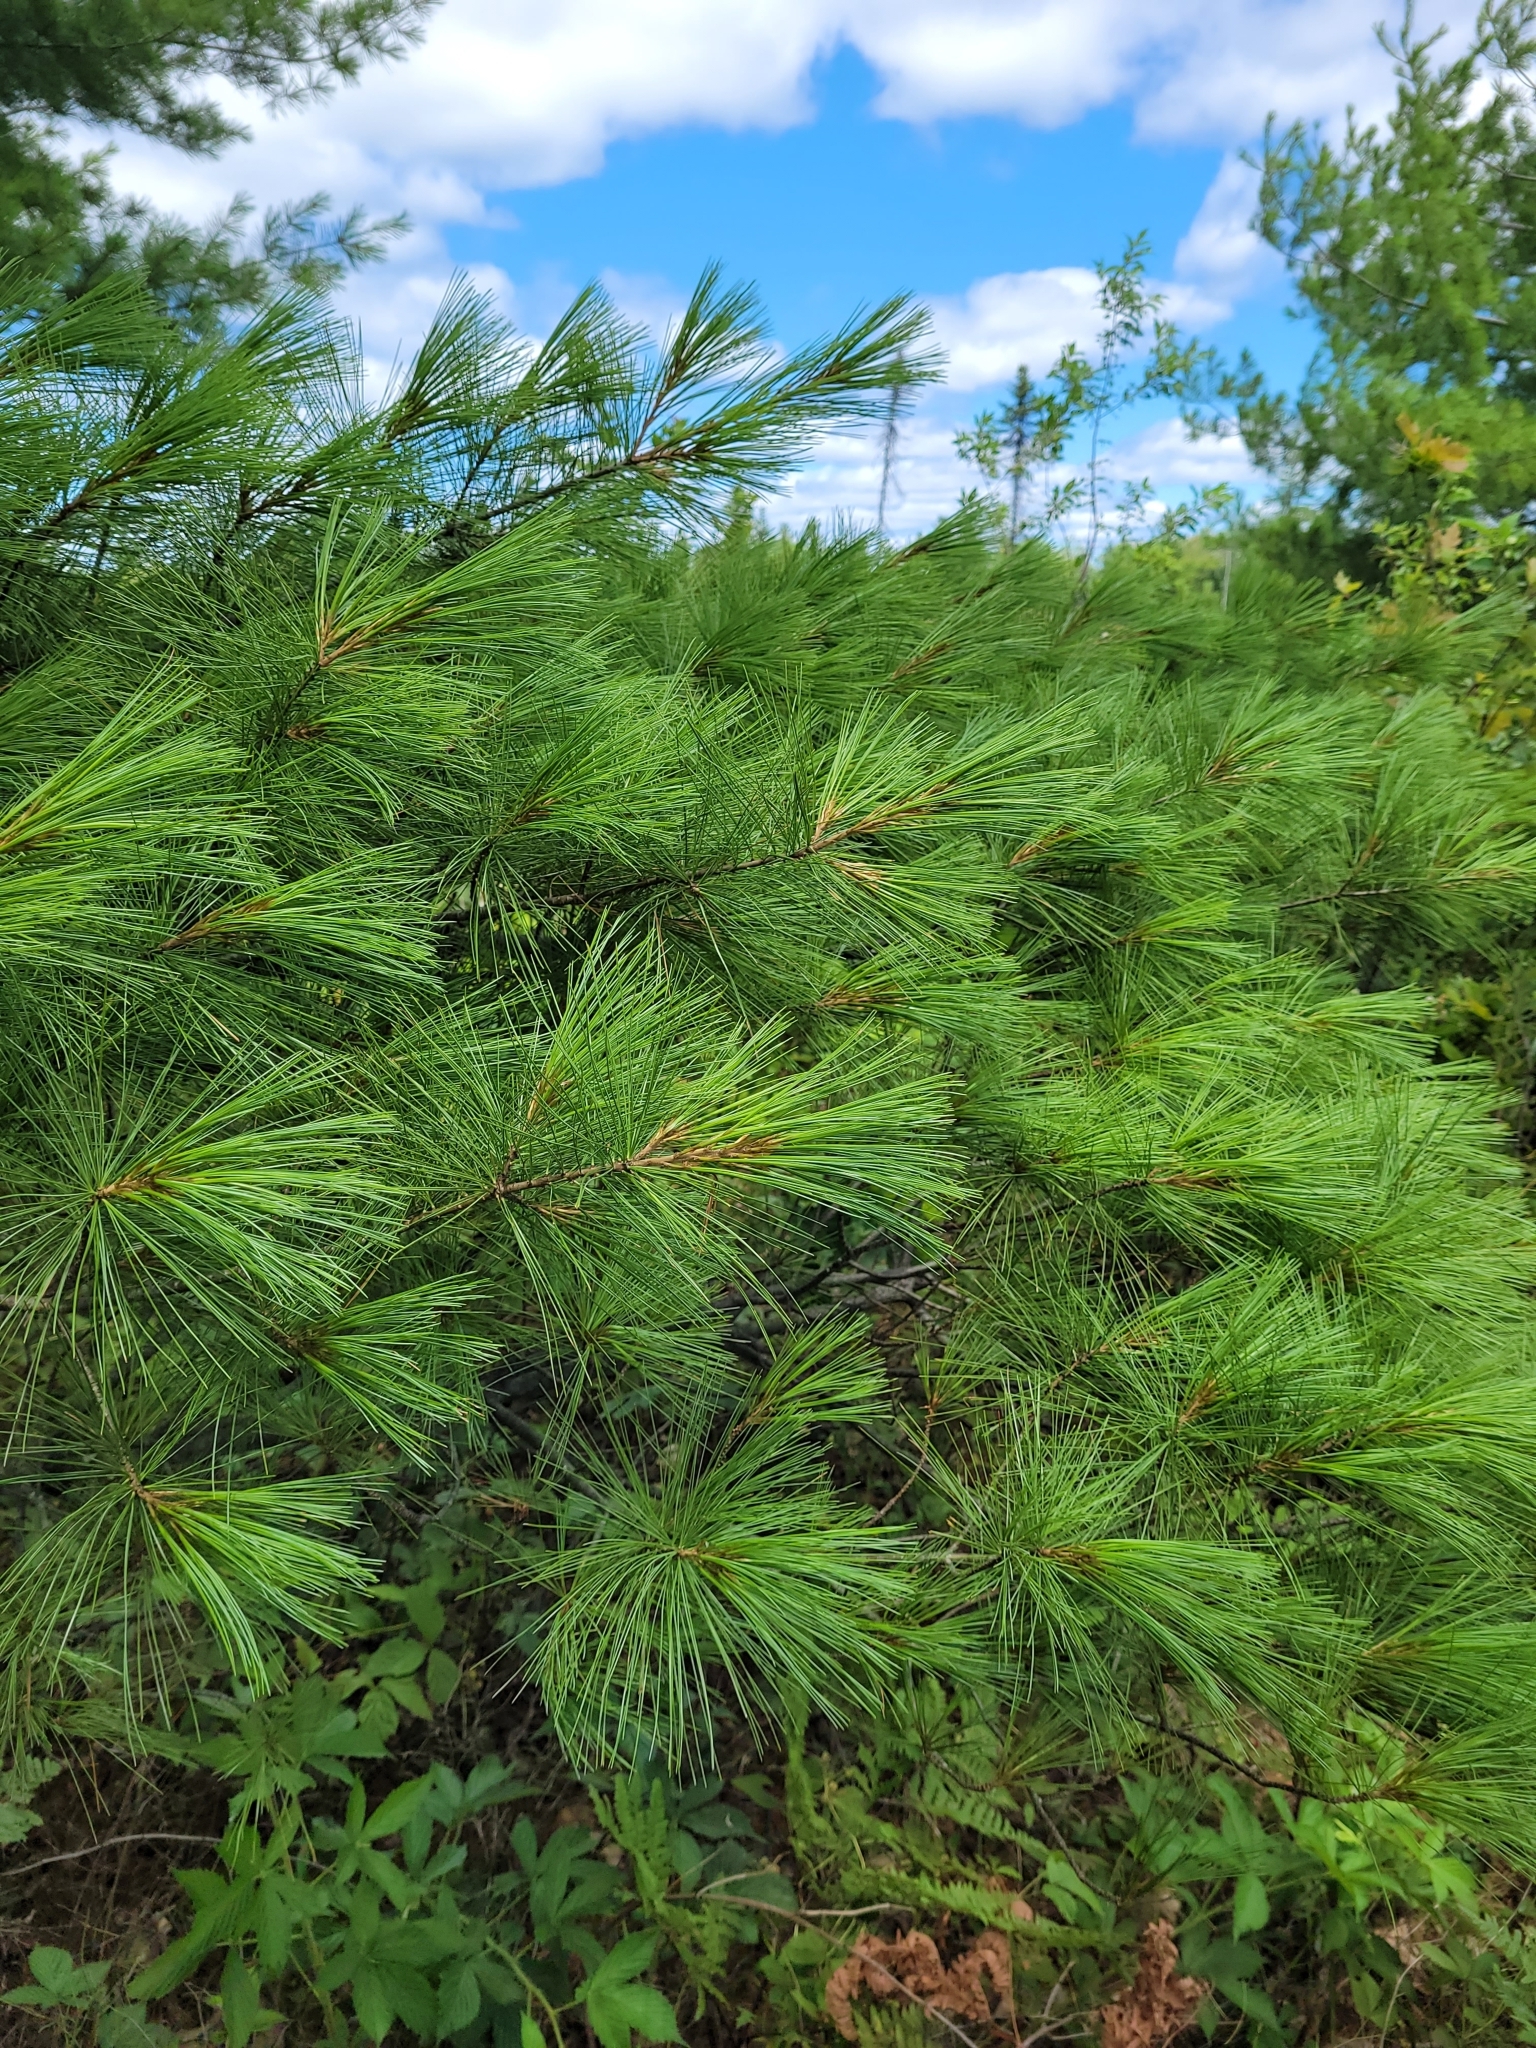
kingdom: Plantae
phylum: Tracheophyta
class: Pinopsida
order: Pinales
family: Pinaceae
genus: Pinus
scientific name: Pinus strobus
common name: Weymouth pine
